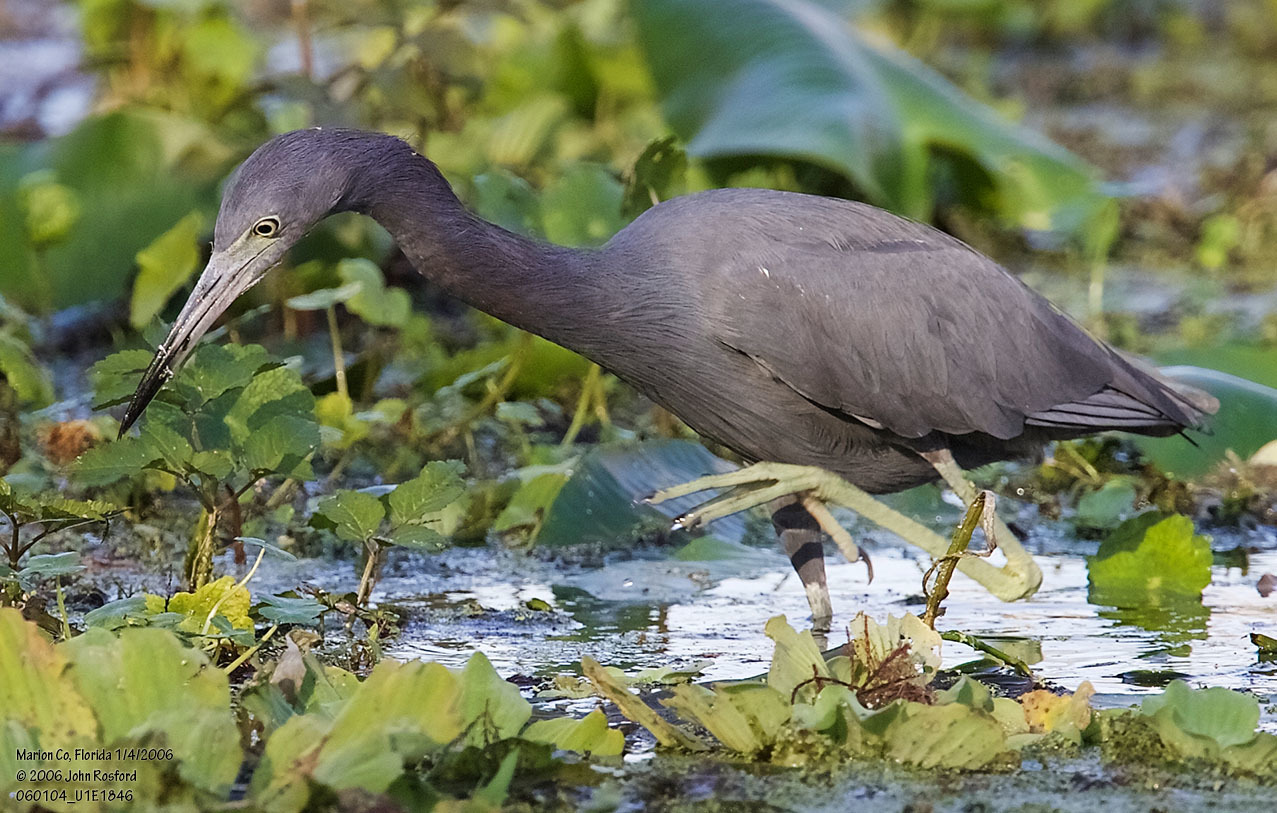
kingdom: Animalia
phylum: Chordata
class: Aves
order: Pelecaniformes
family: Ardeidae
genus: Egretta
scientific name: Egretta caerulea
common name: Little blue heron
